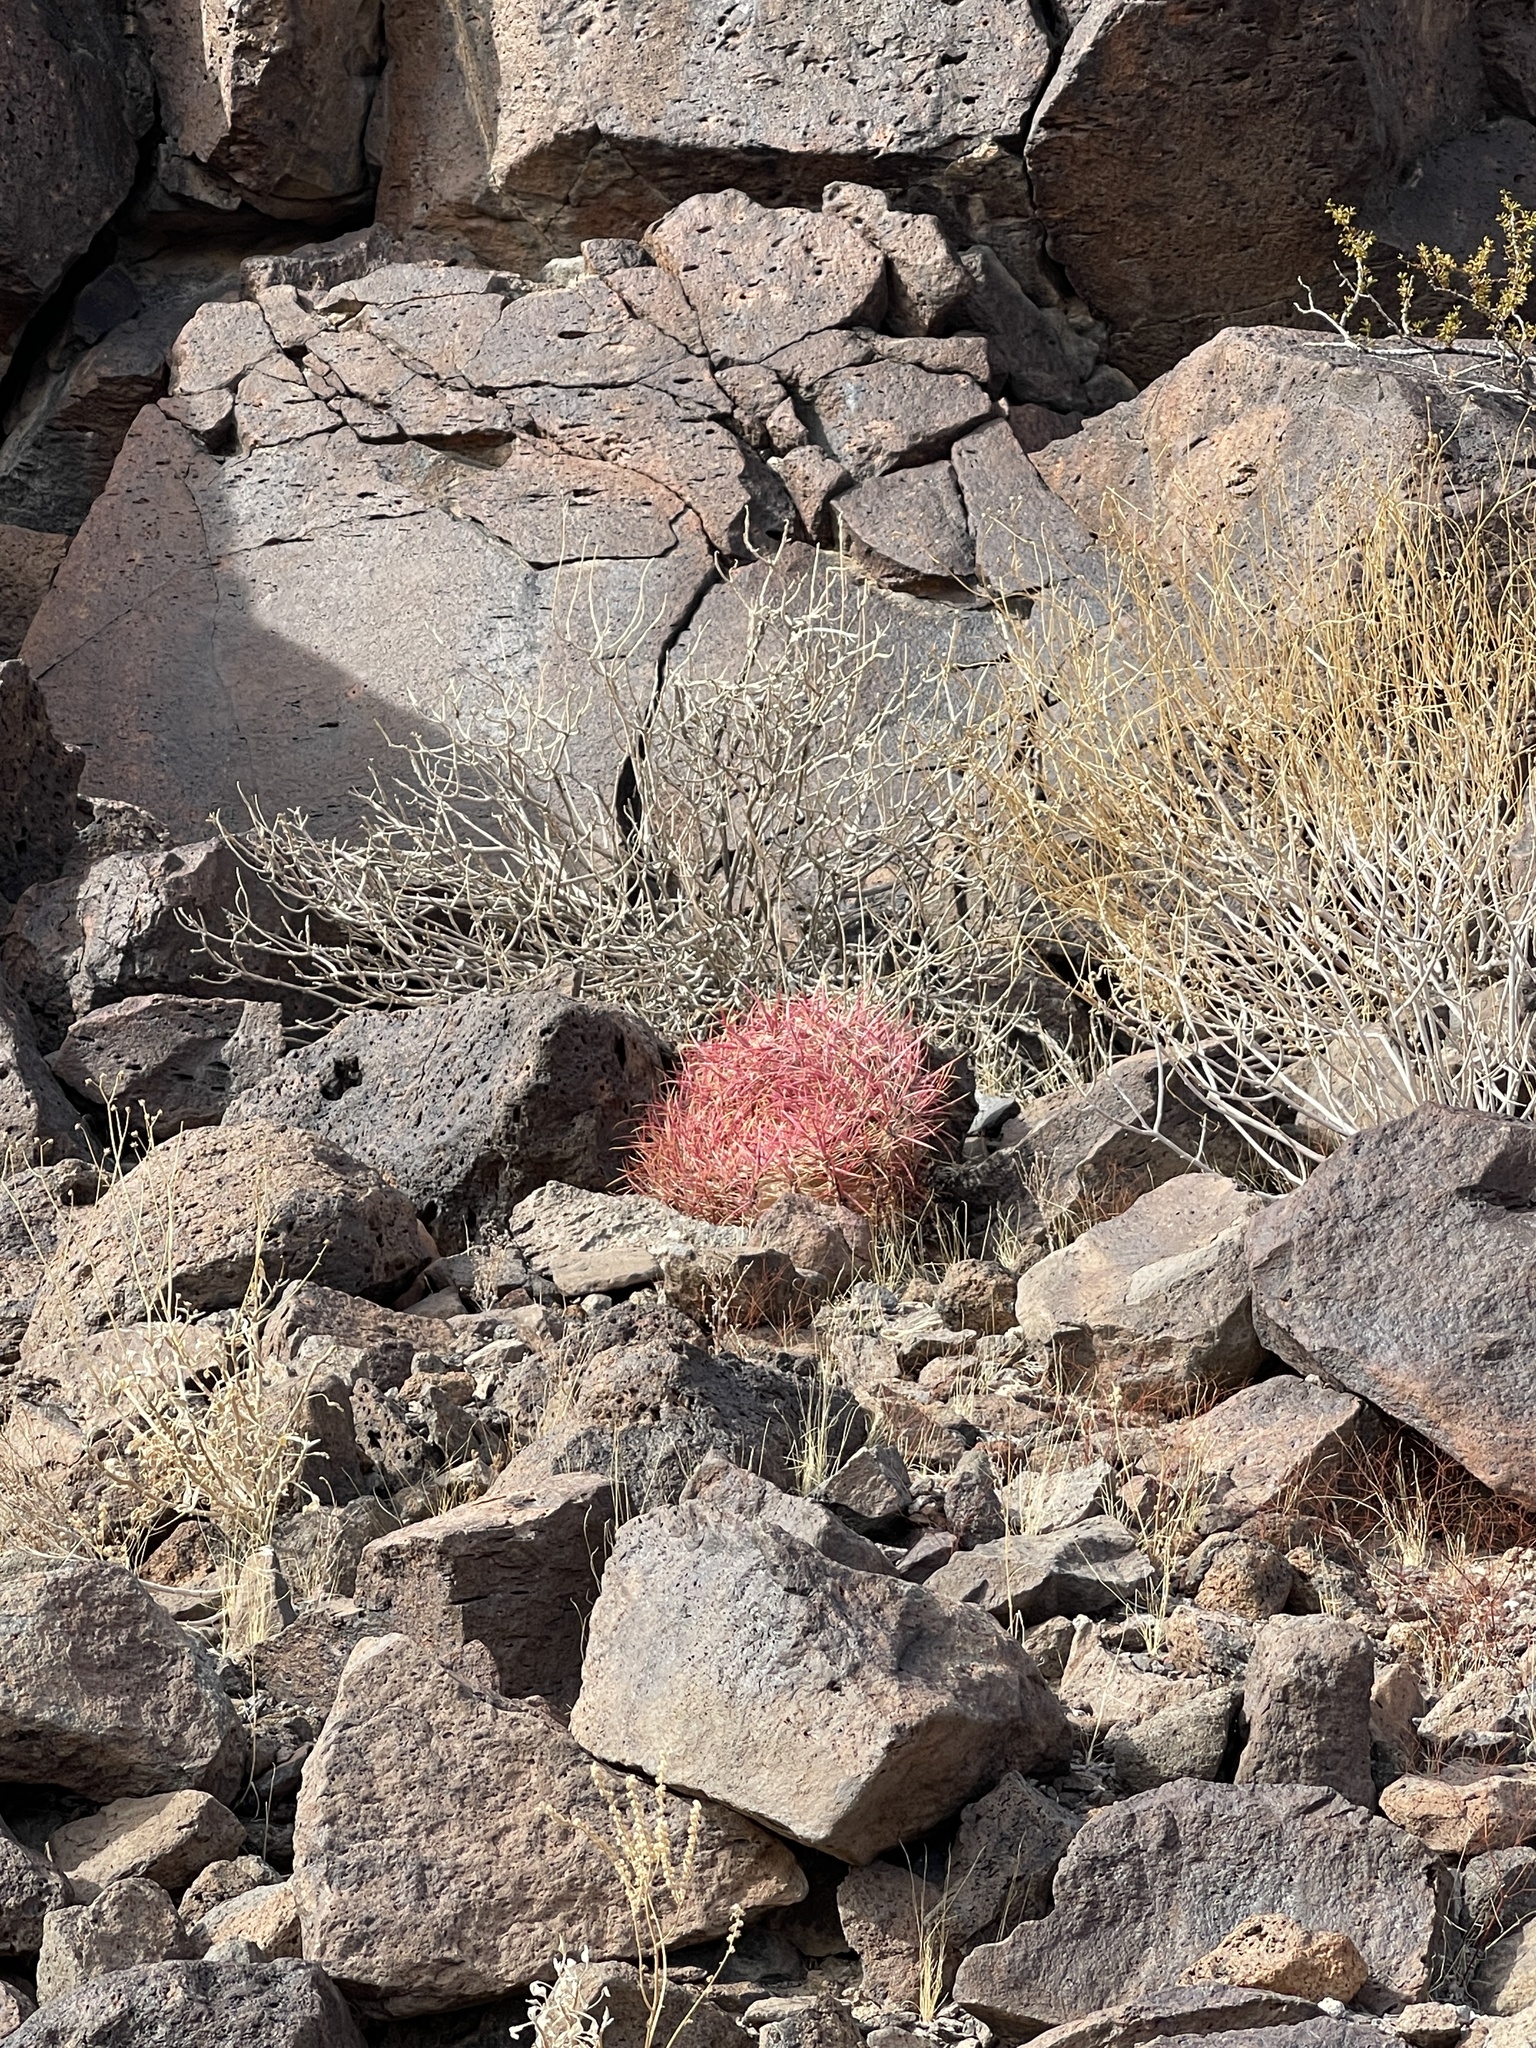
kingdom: Plantae
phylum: Tracheophyta
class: Magnoliopsida
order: Caryophyllales
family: Cactaceae
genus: Ferocactus
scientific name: Ferocactus cylindraceus
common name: California barrel cactus
